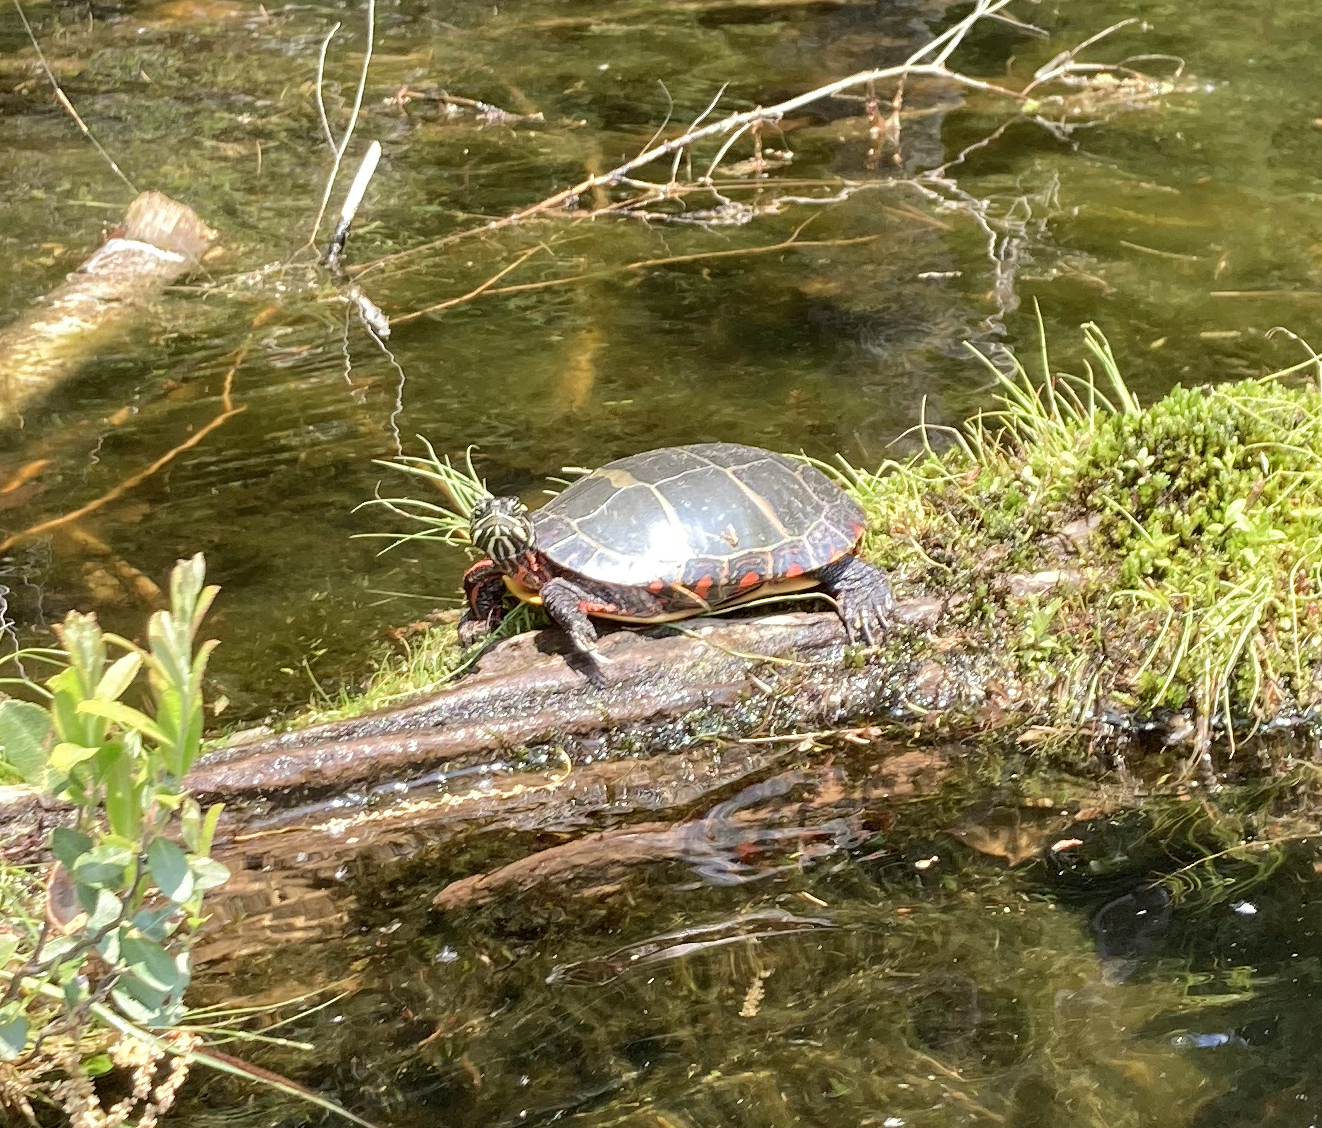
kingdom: Animalia
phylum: Chordata
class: Testudines
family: Emydidae
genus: Chrysemys
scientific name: Chrysemys picta
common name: Painted turtle
